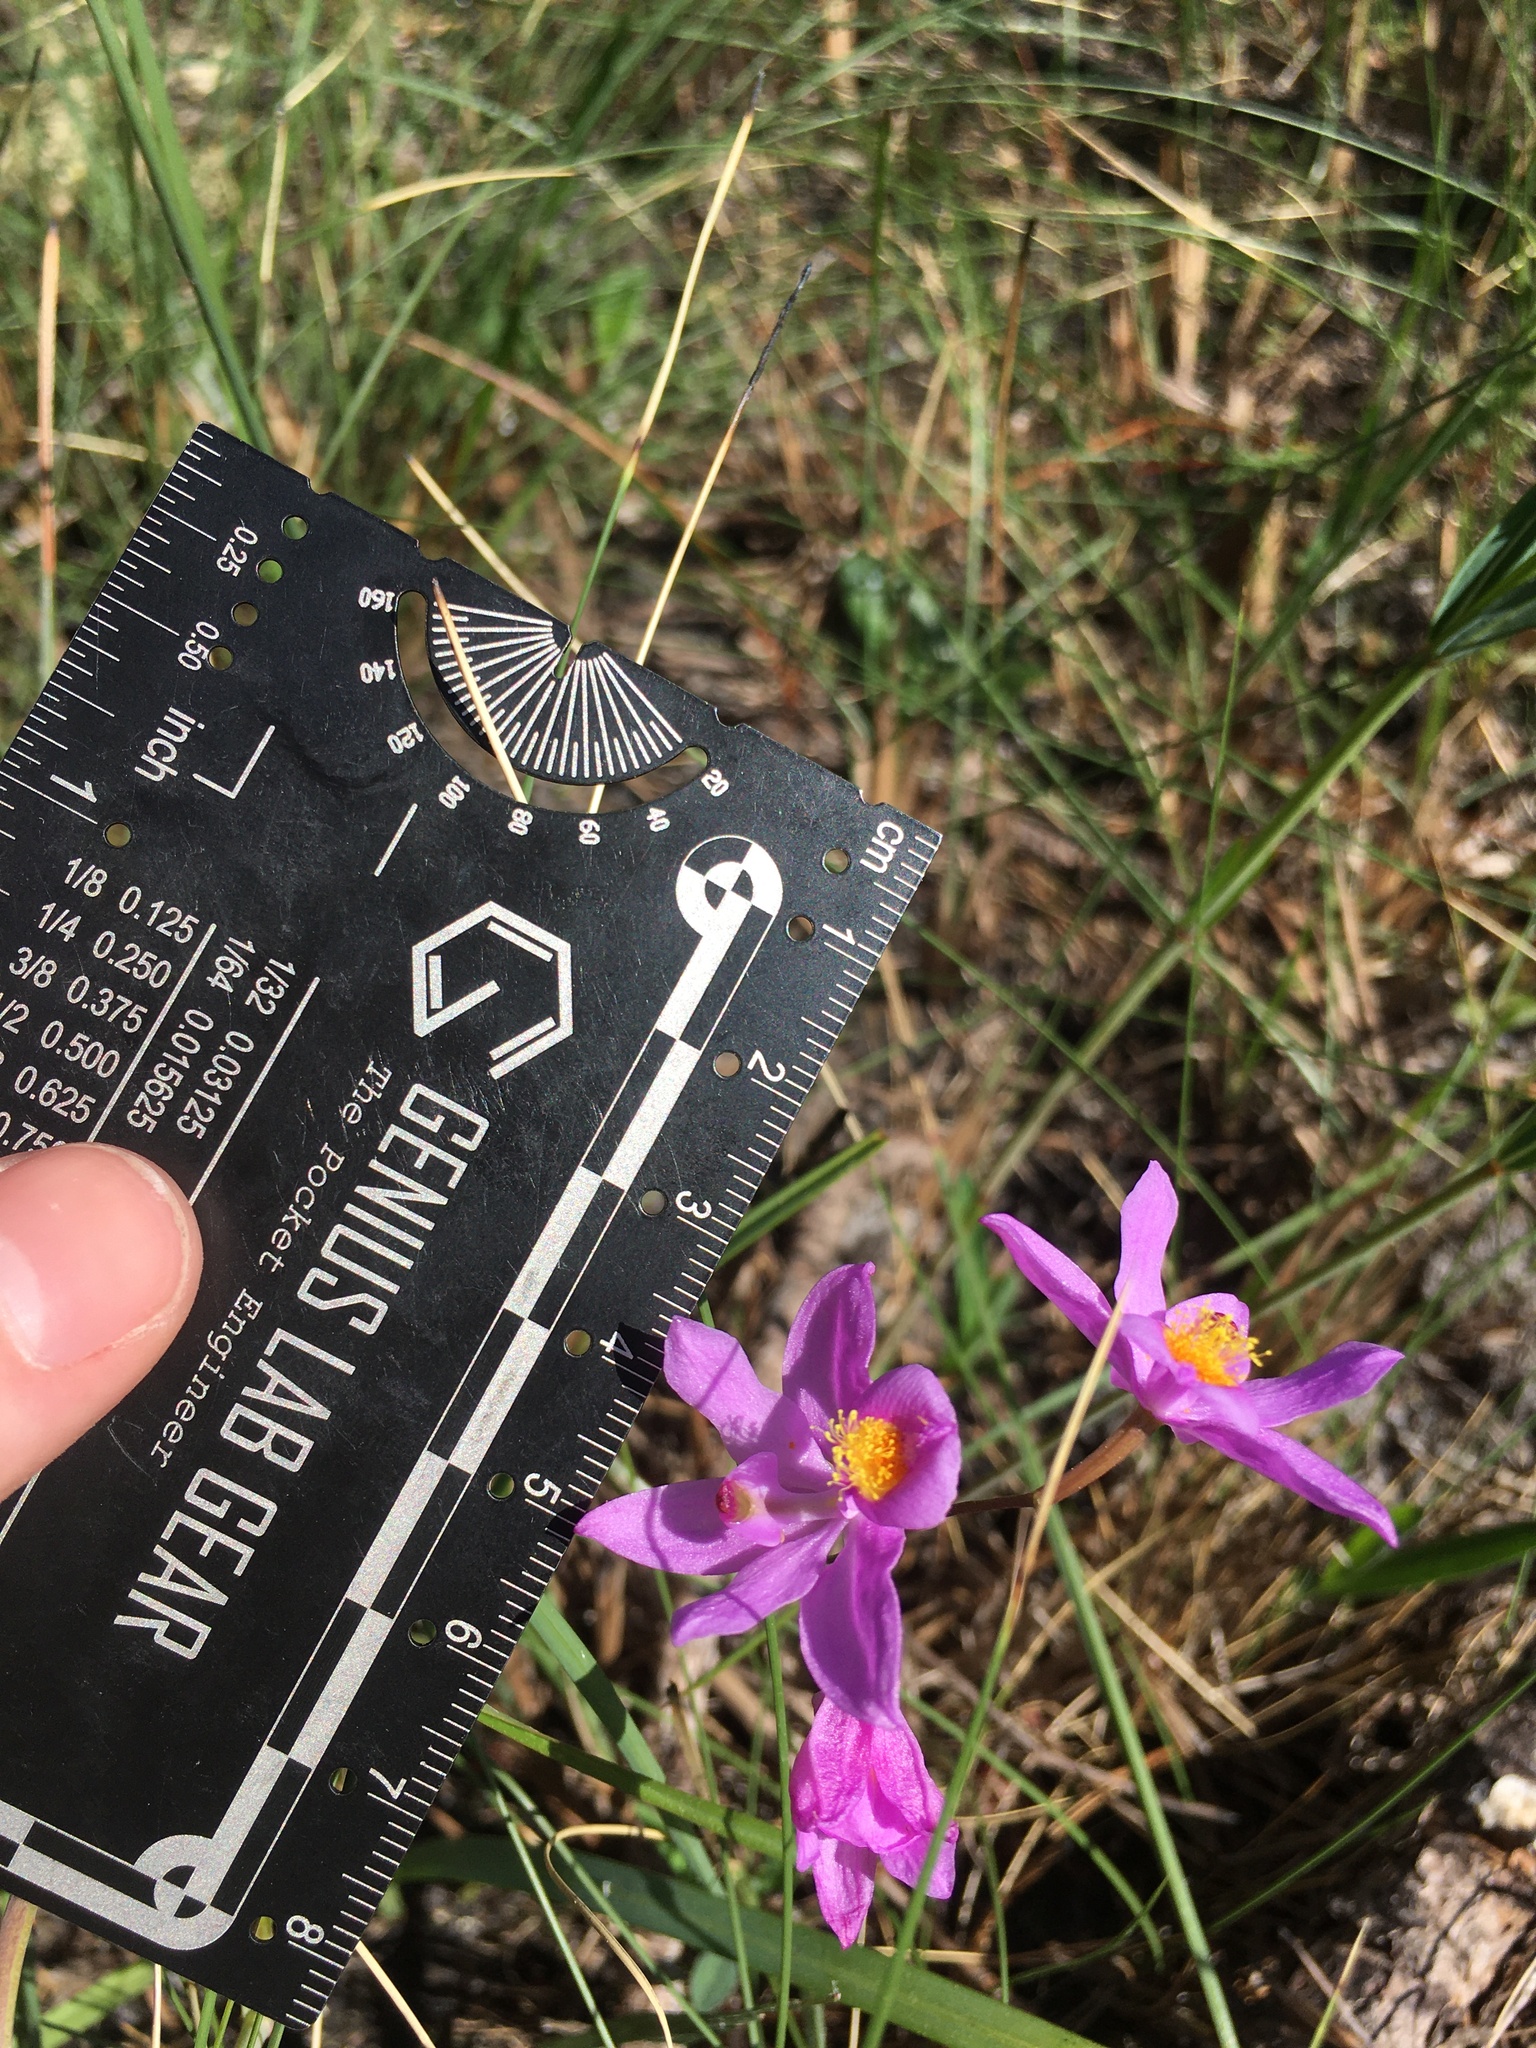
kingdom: Plantae
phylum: Tracheophyta
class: Liliopsida
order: Asparagales
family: Orchidaceae
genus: Calopogon
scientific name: Calopogon barbatus
